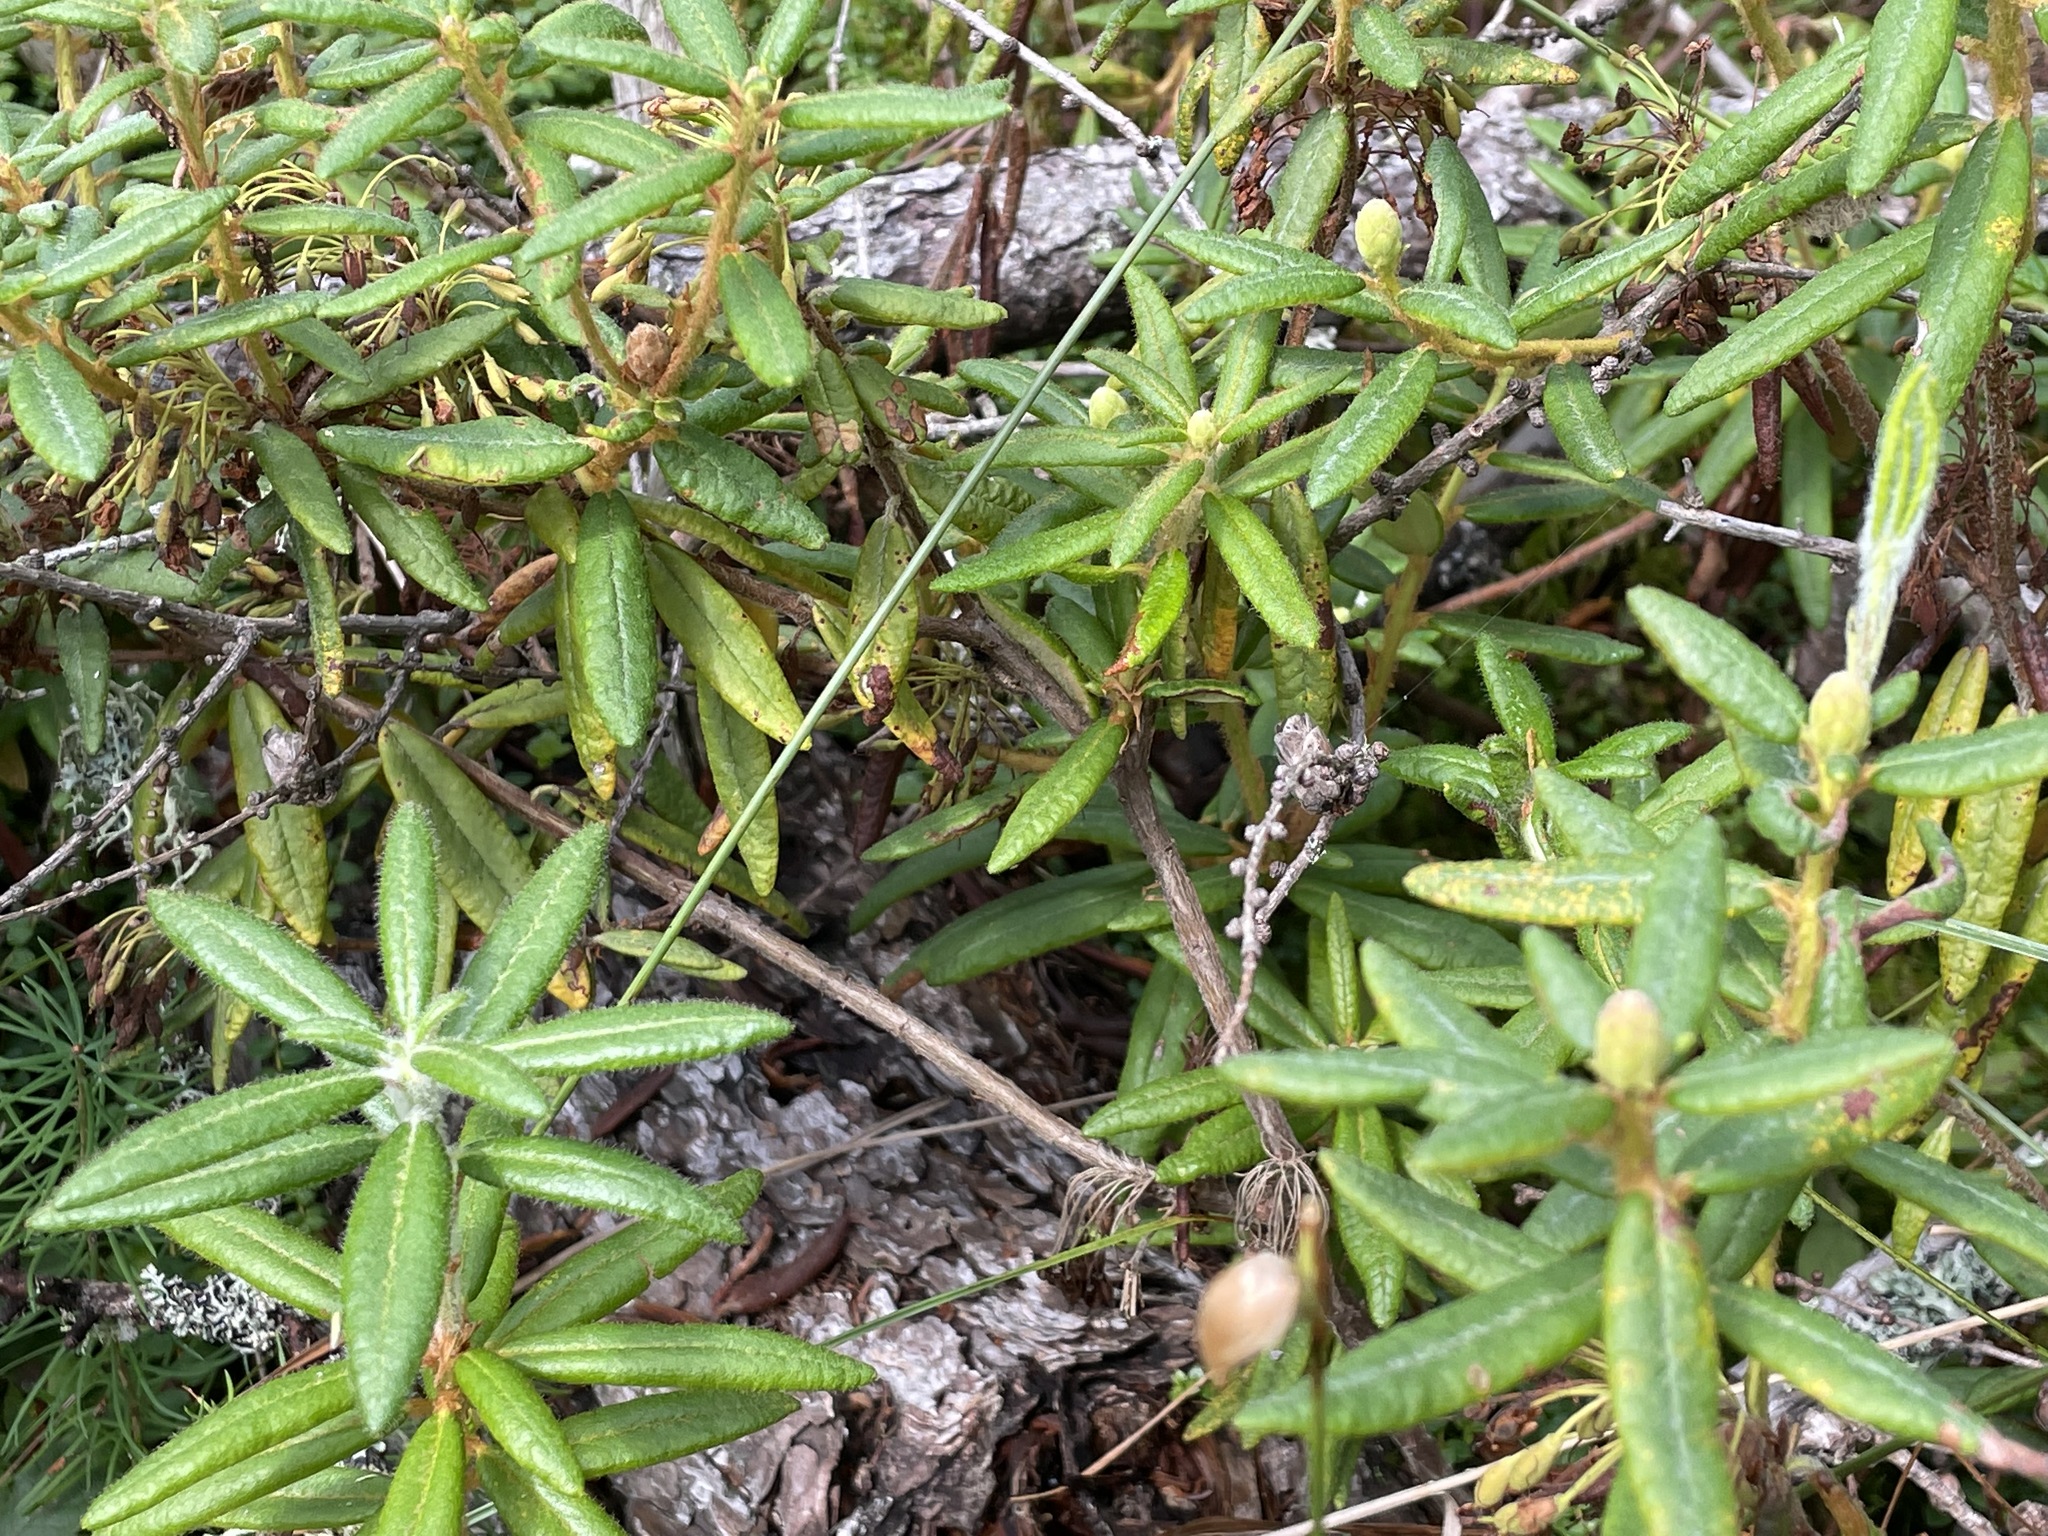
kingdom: Plantae
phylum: Tracheophyta
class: Magnoliopsida
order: Ericales
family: Ericaceae
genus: Rhododendron
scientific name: Rhododendron groenlandicum
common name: Bog labrador tea
